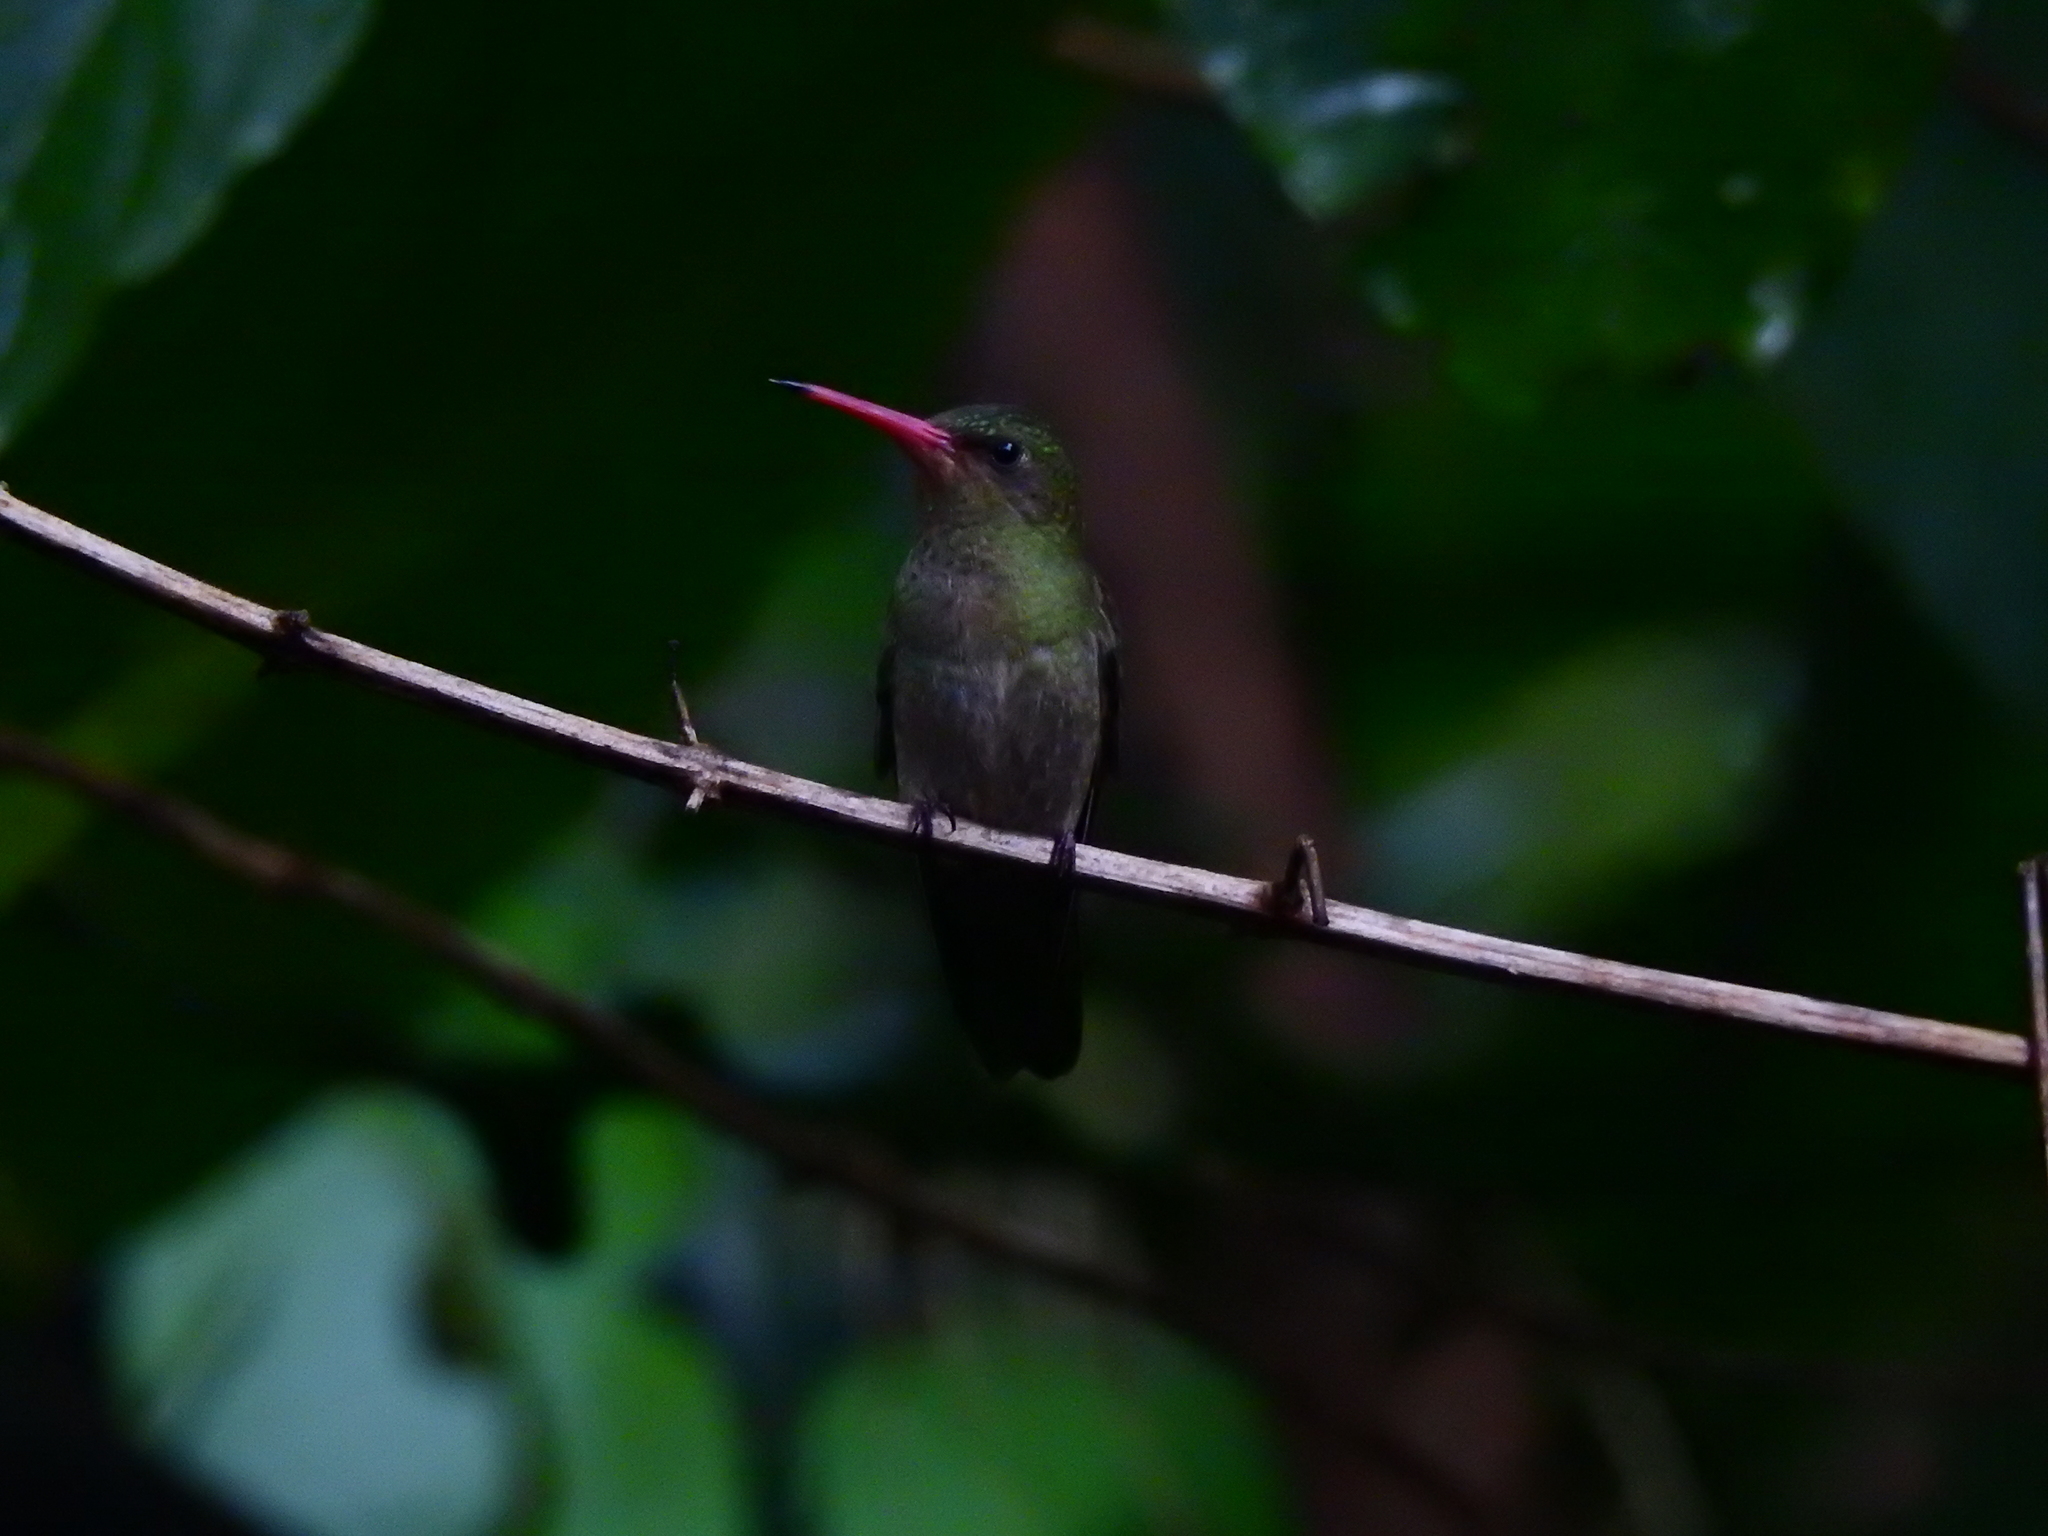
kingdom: Animalia
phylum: Chordata
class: Aves
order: Apodiformes
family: Trochilidae
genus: Hylocharis
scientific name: Hylocharis chrysura
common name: Gilded sapphire
